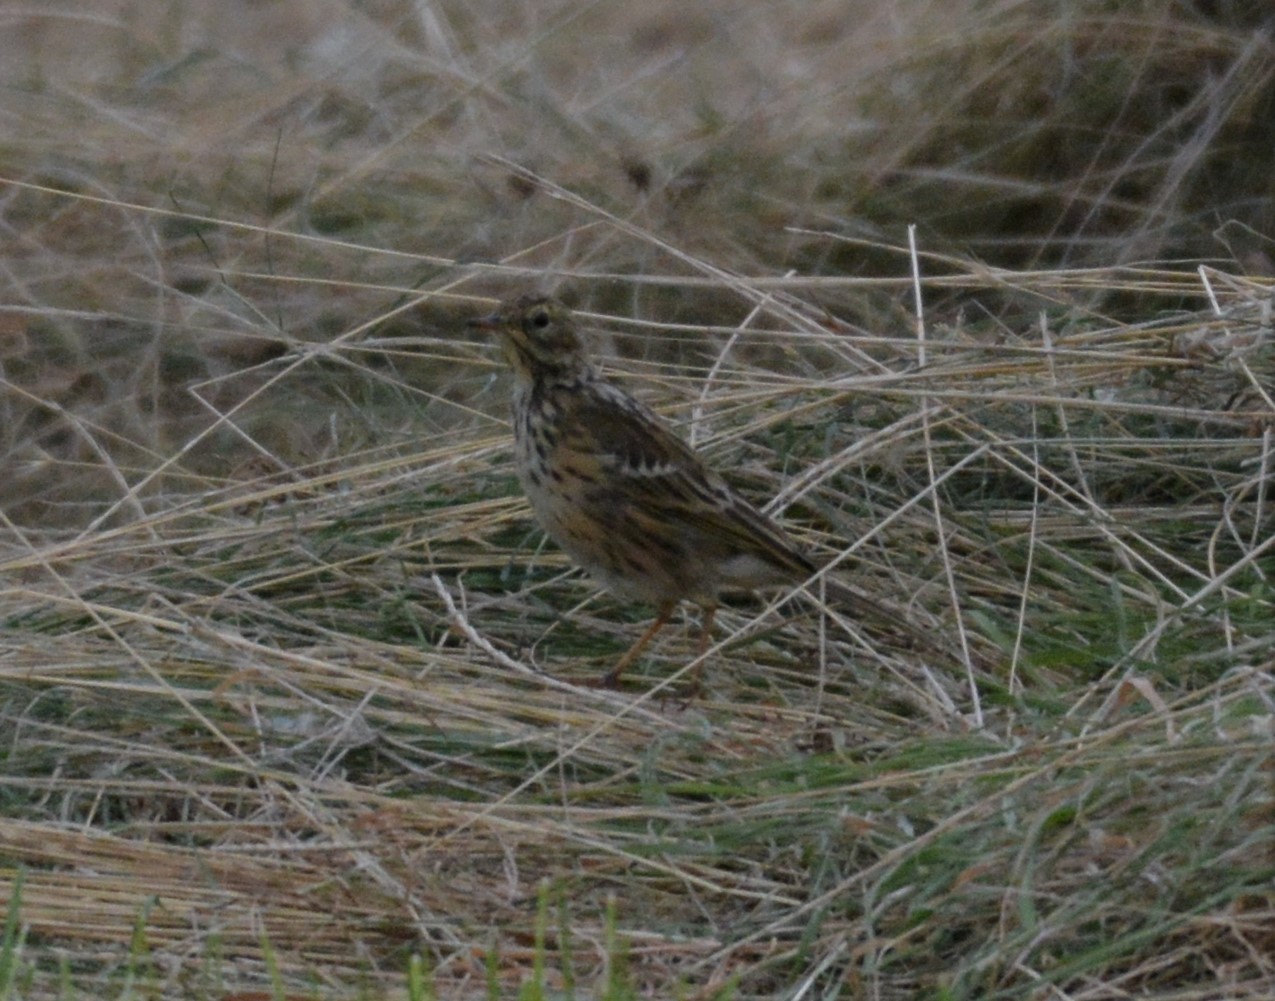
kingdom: Animalia
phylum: Chordata
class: Aves
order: Passeriformes
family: Motacillidae
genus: Anthus
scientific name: Anthus pratensis
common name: Meadow pipit
